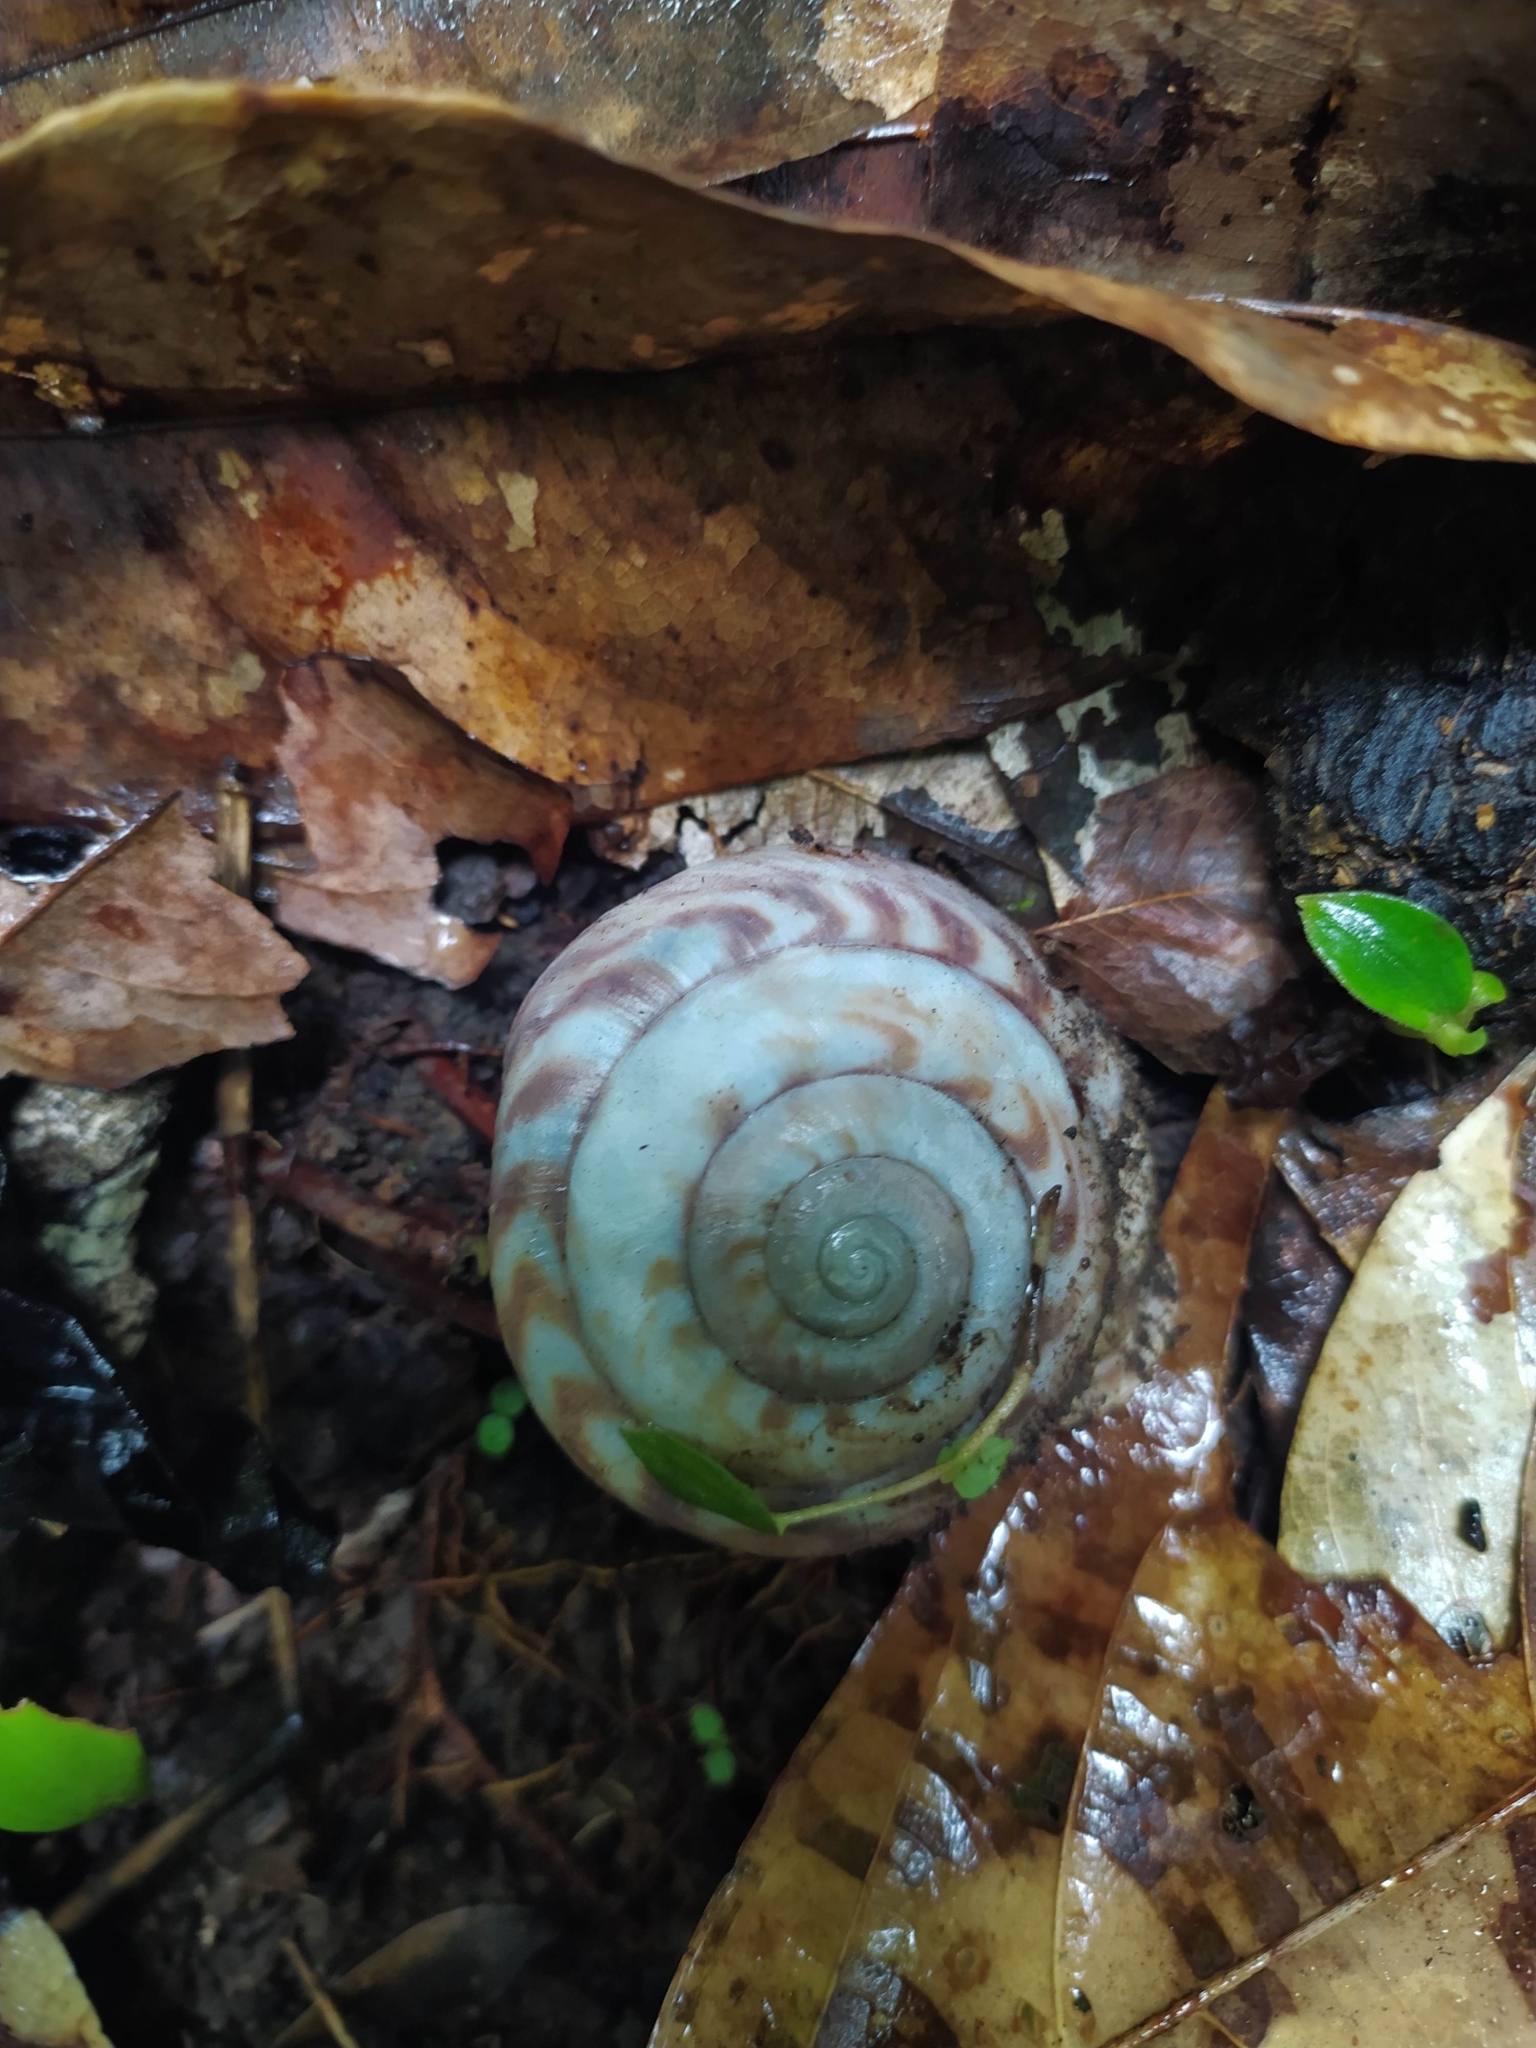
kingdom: Animalia
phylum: Mollusca
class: Gastropoda
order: Stylommatophora
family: Solaropsidae
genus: Solaropsis
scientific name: Solaropsis undata
